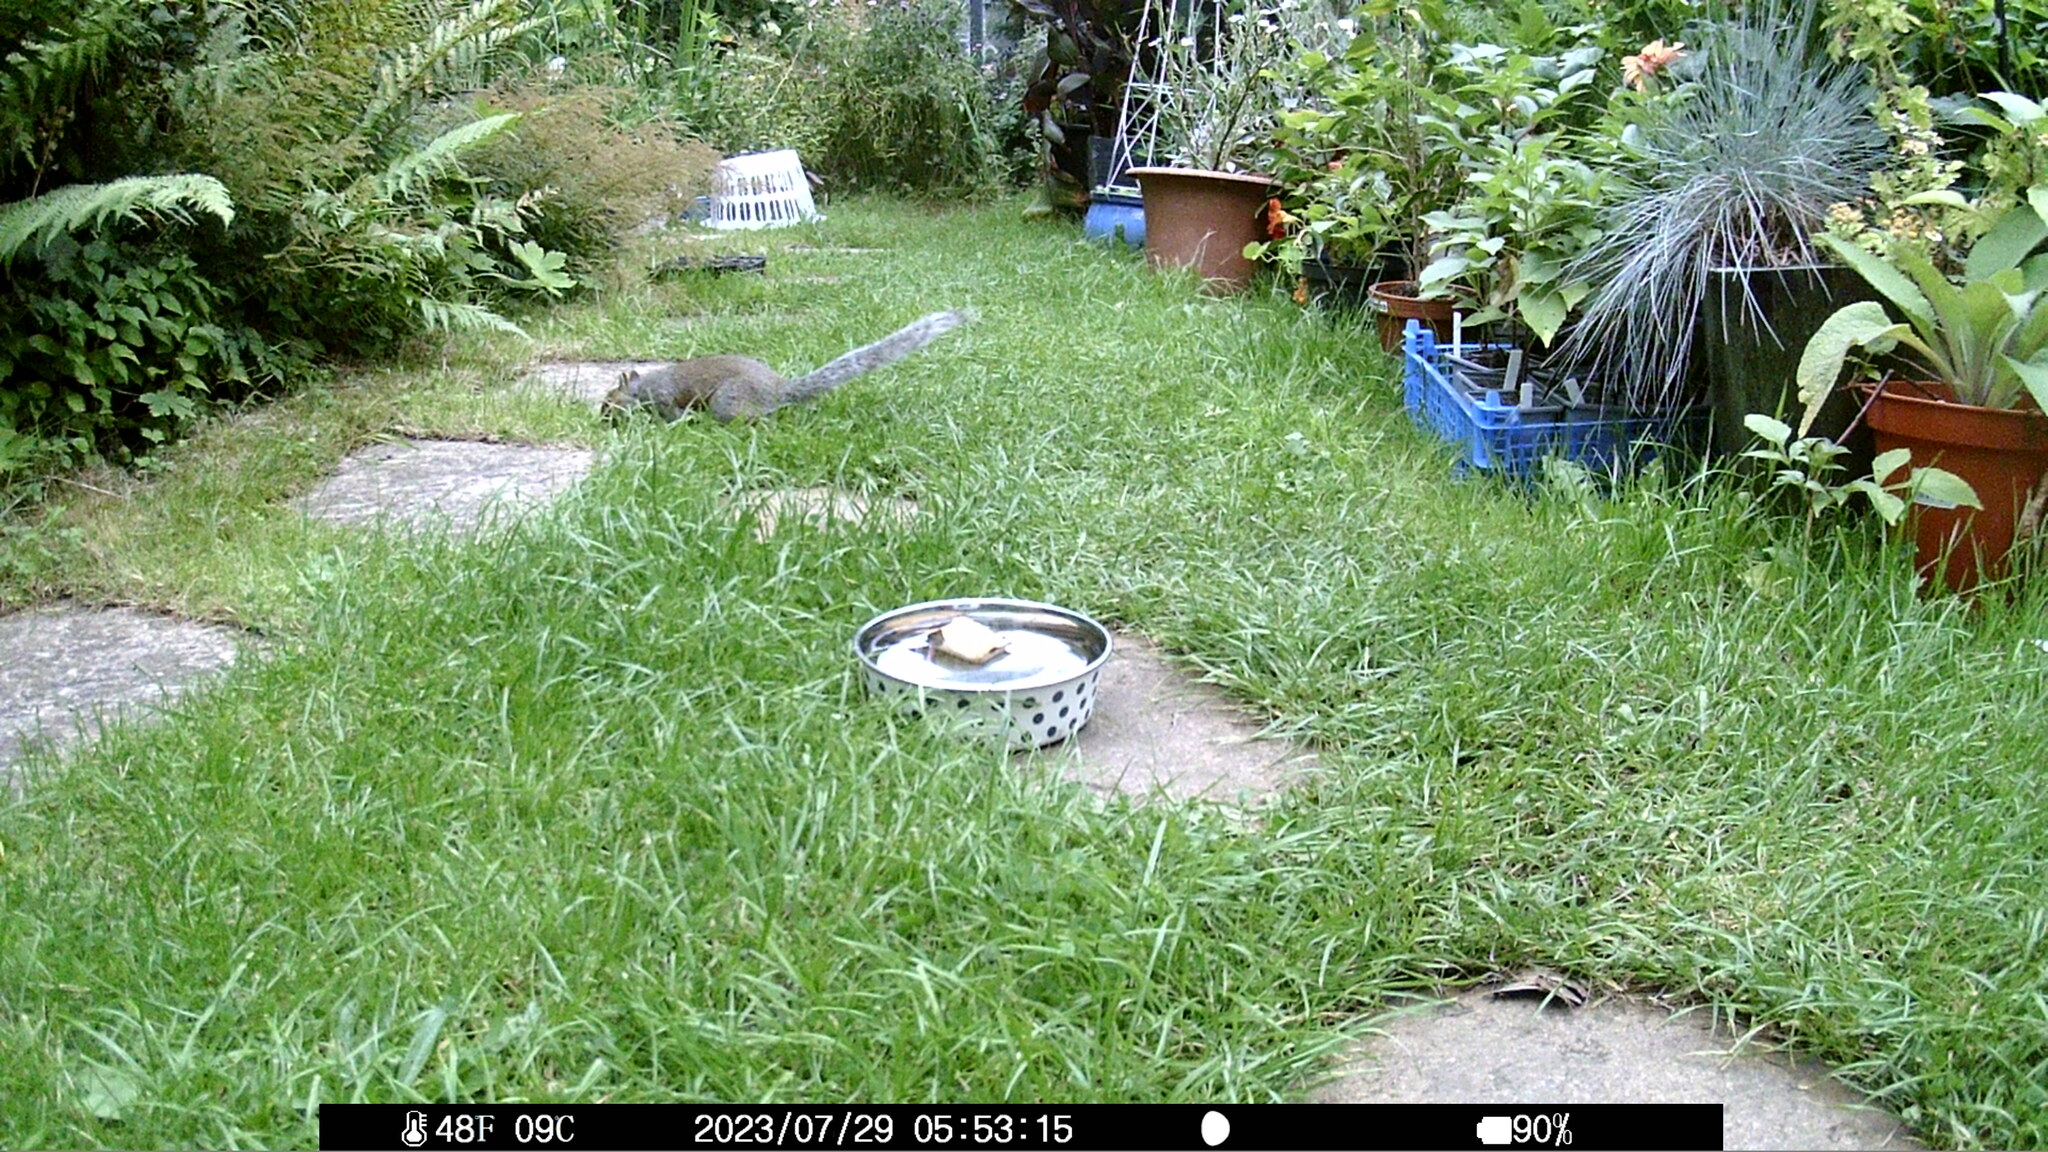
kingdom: Animalia
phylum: Chordata
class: Mammalia
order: Rodentia
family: Sciuridae
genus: Sciurus
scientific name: Sciurus carolinensis
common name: Eastern gray squirrel
